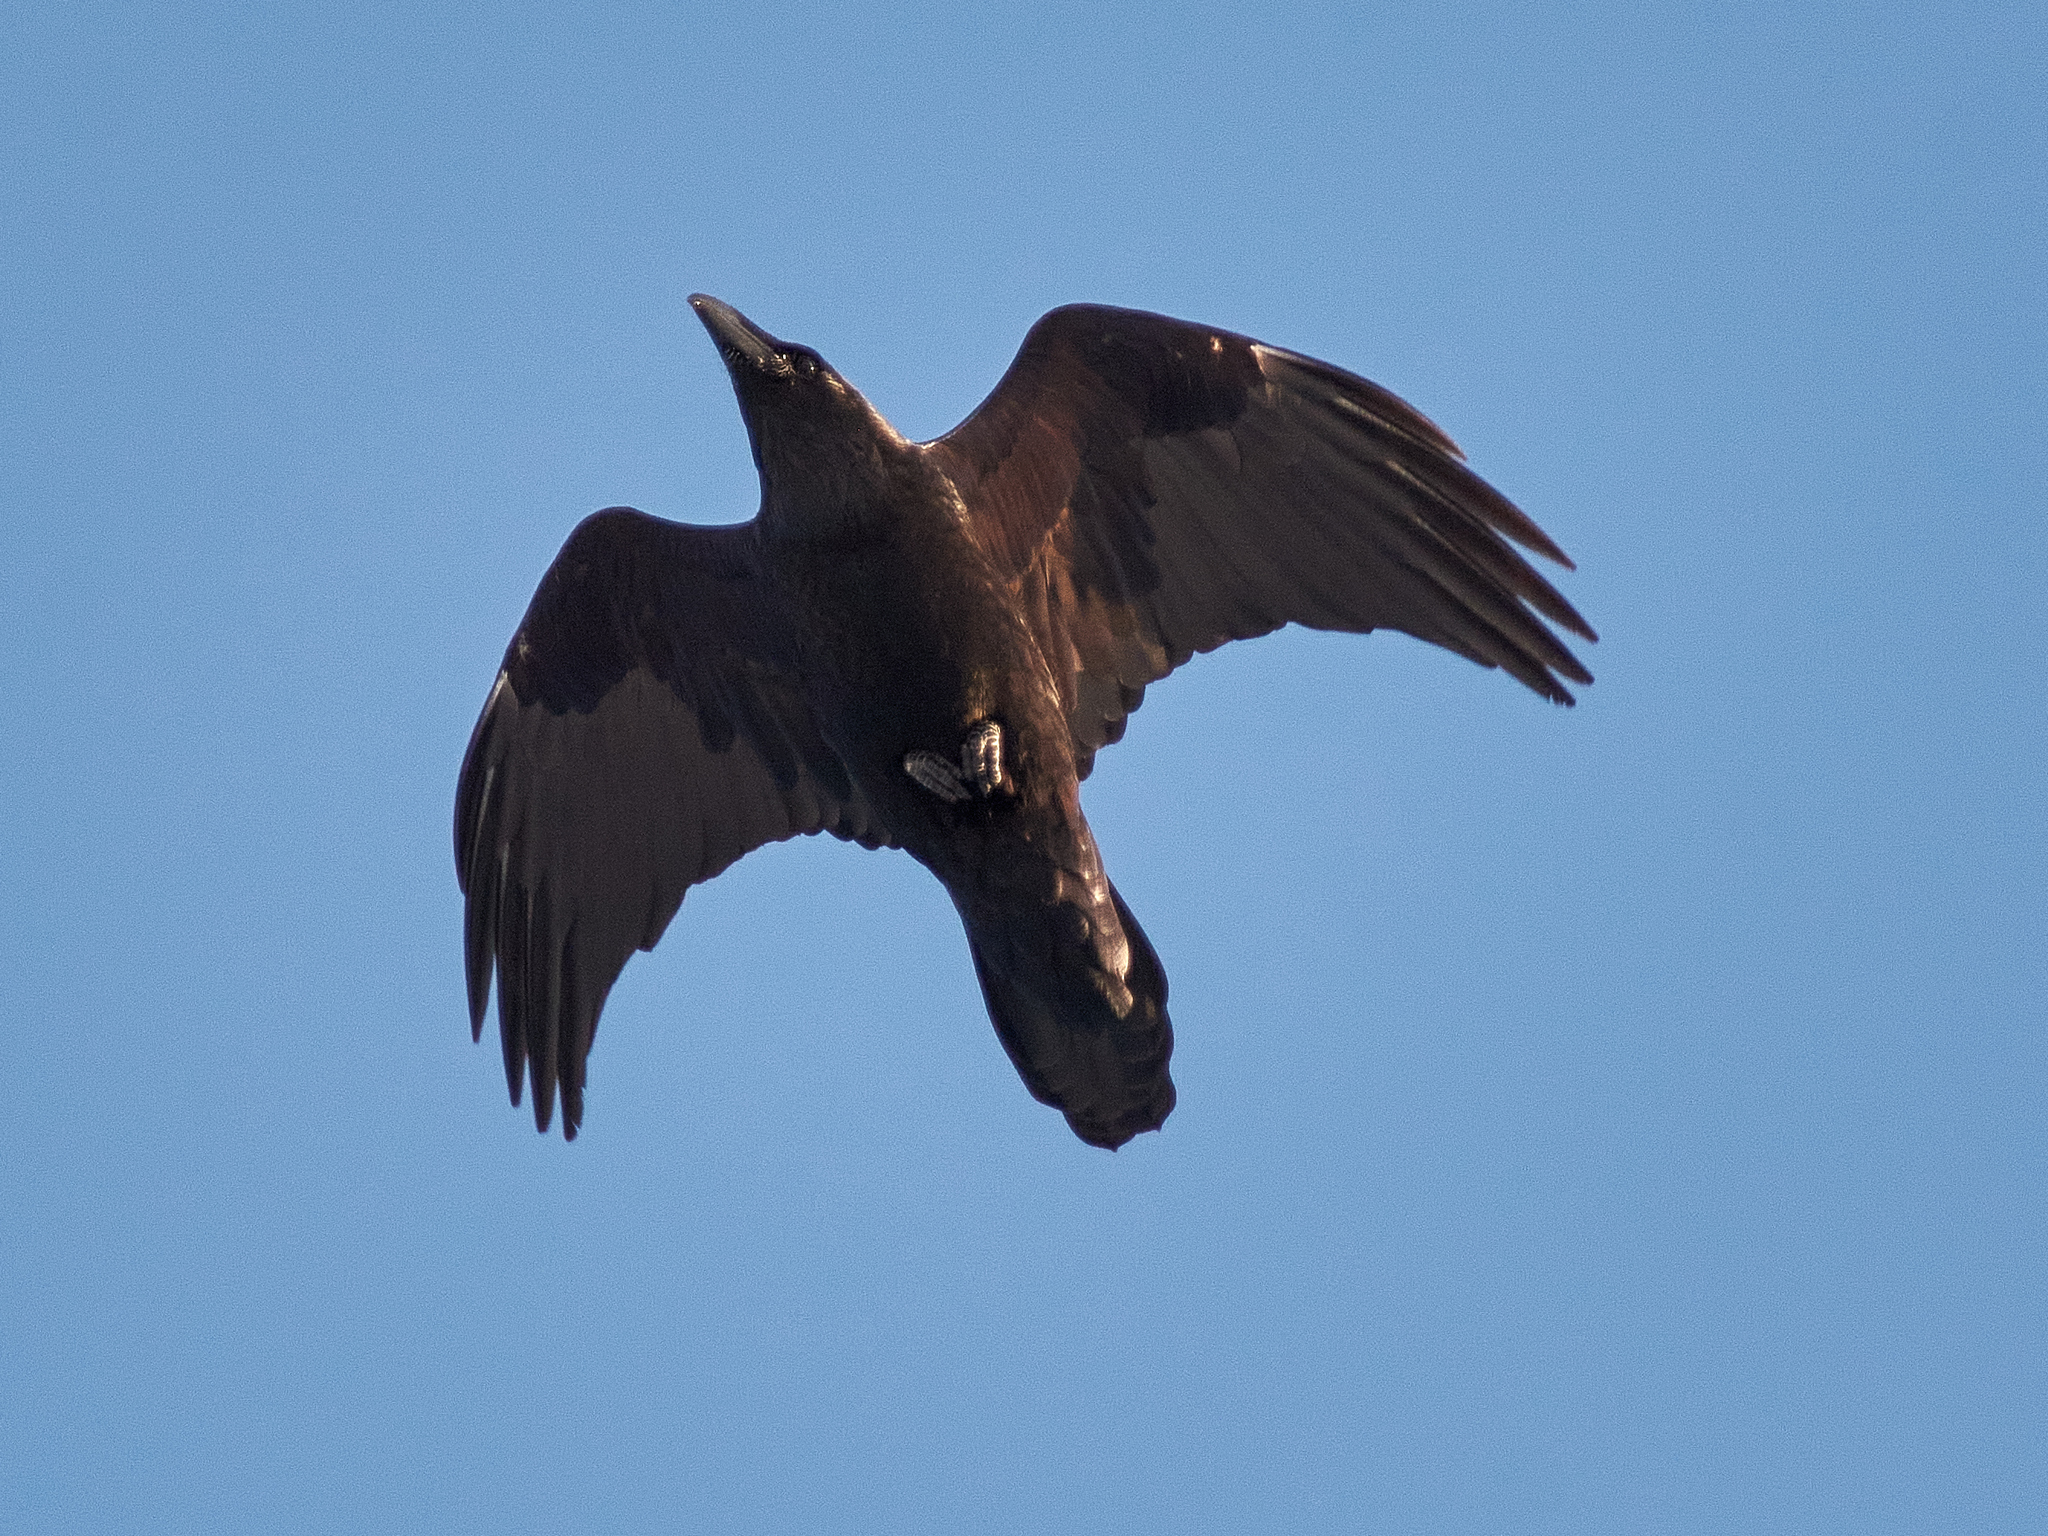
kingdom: Animalia
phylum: Chordata
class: Aves
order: Passeriformes
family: Corvidae
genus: Corvus
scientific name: Corvus corax
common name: Common raven
